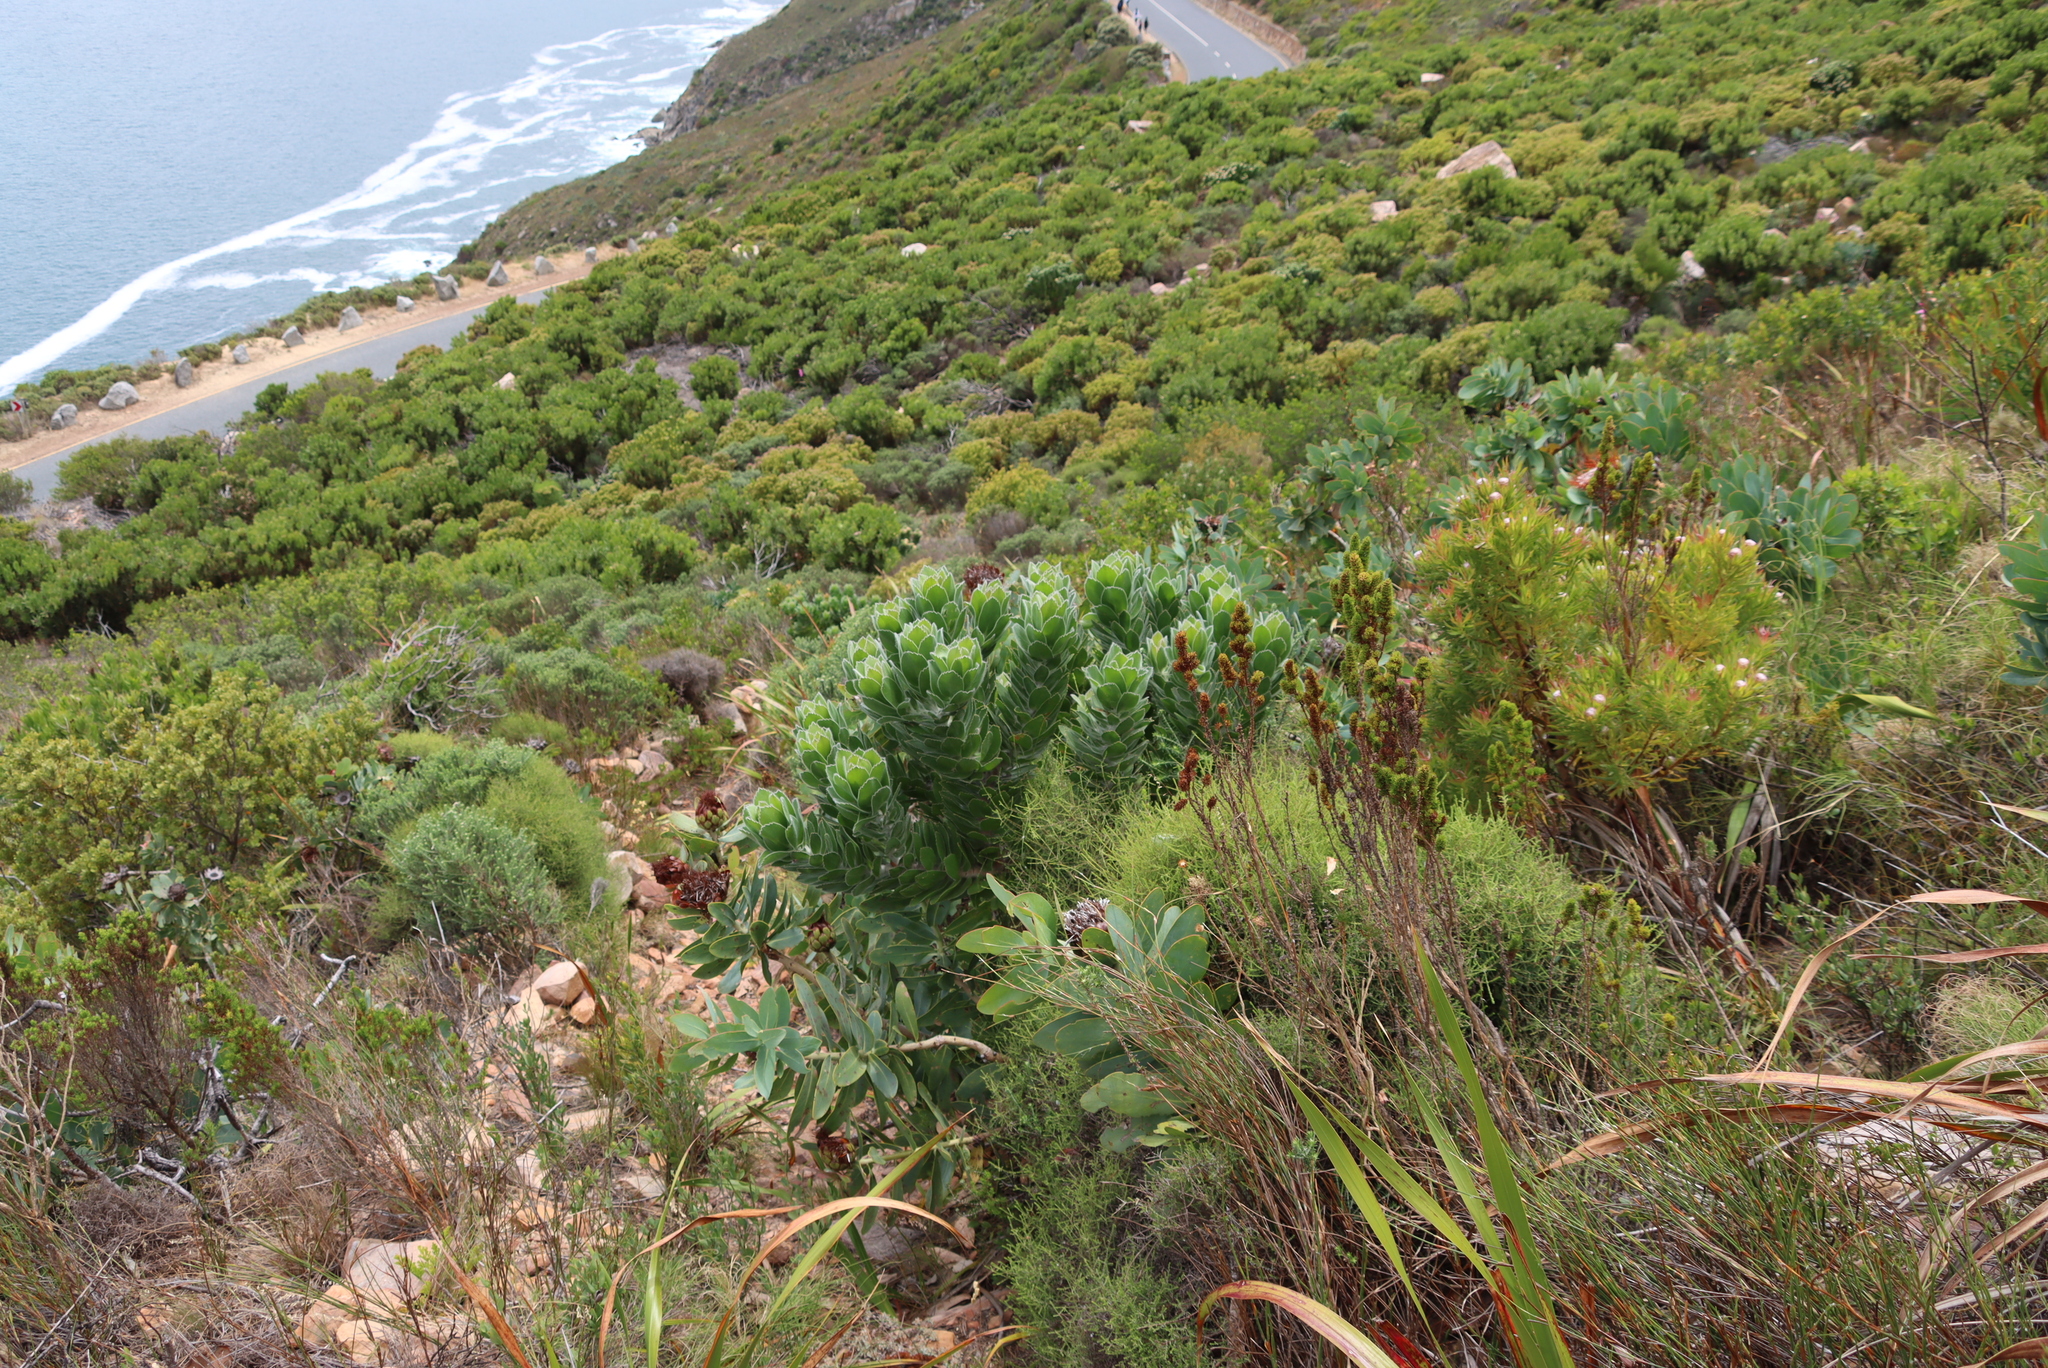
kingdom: Plantae
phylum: Tracheophyta
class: Magnoliopsida
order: Proteales
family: Proteaceae
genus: Leucospermum
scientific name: Leucospermum conocarpodendron
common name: Tree pincushion
